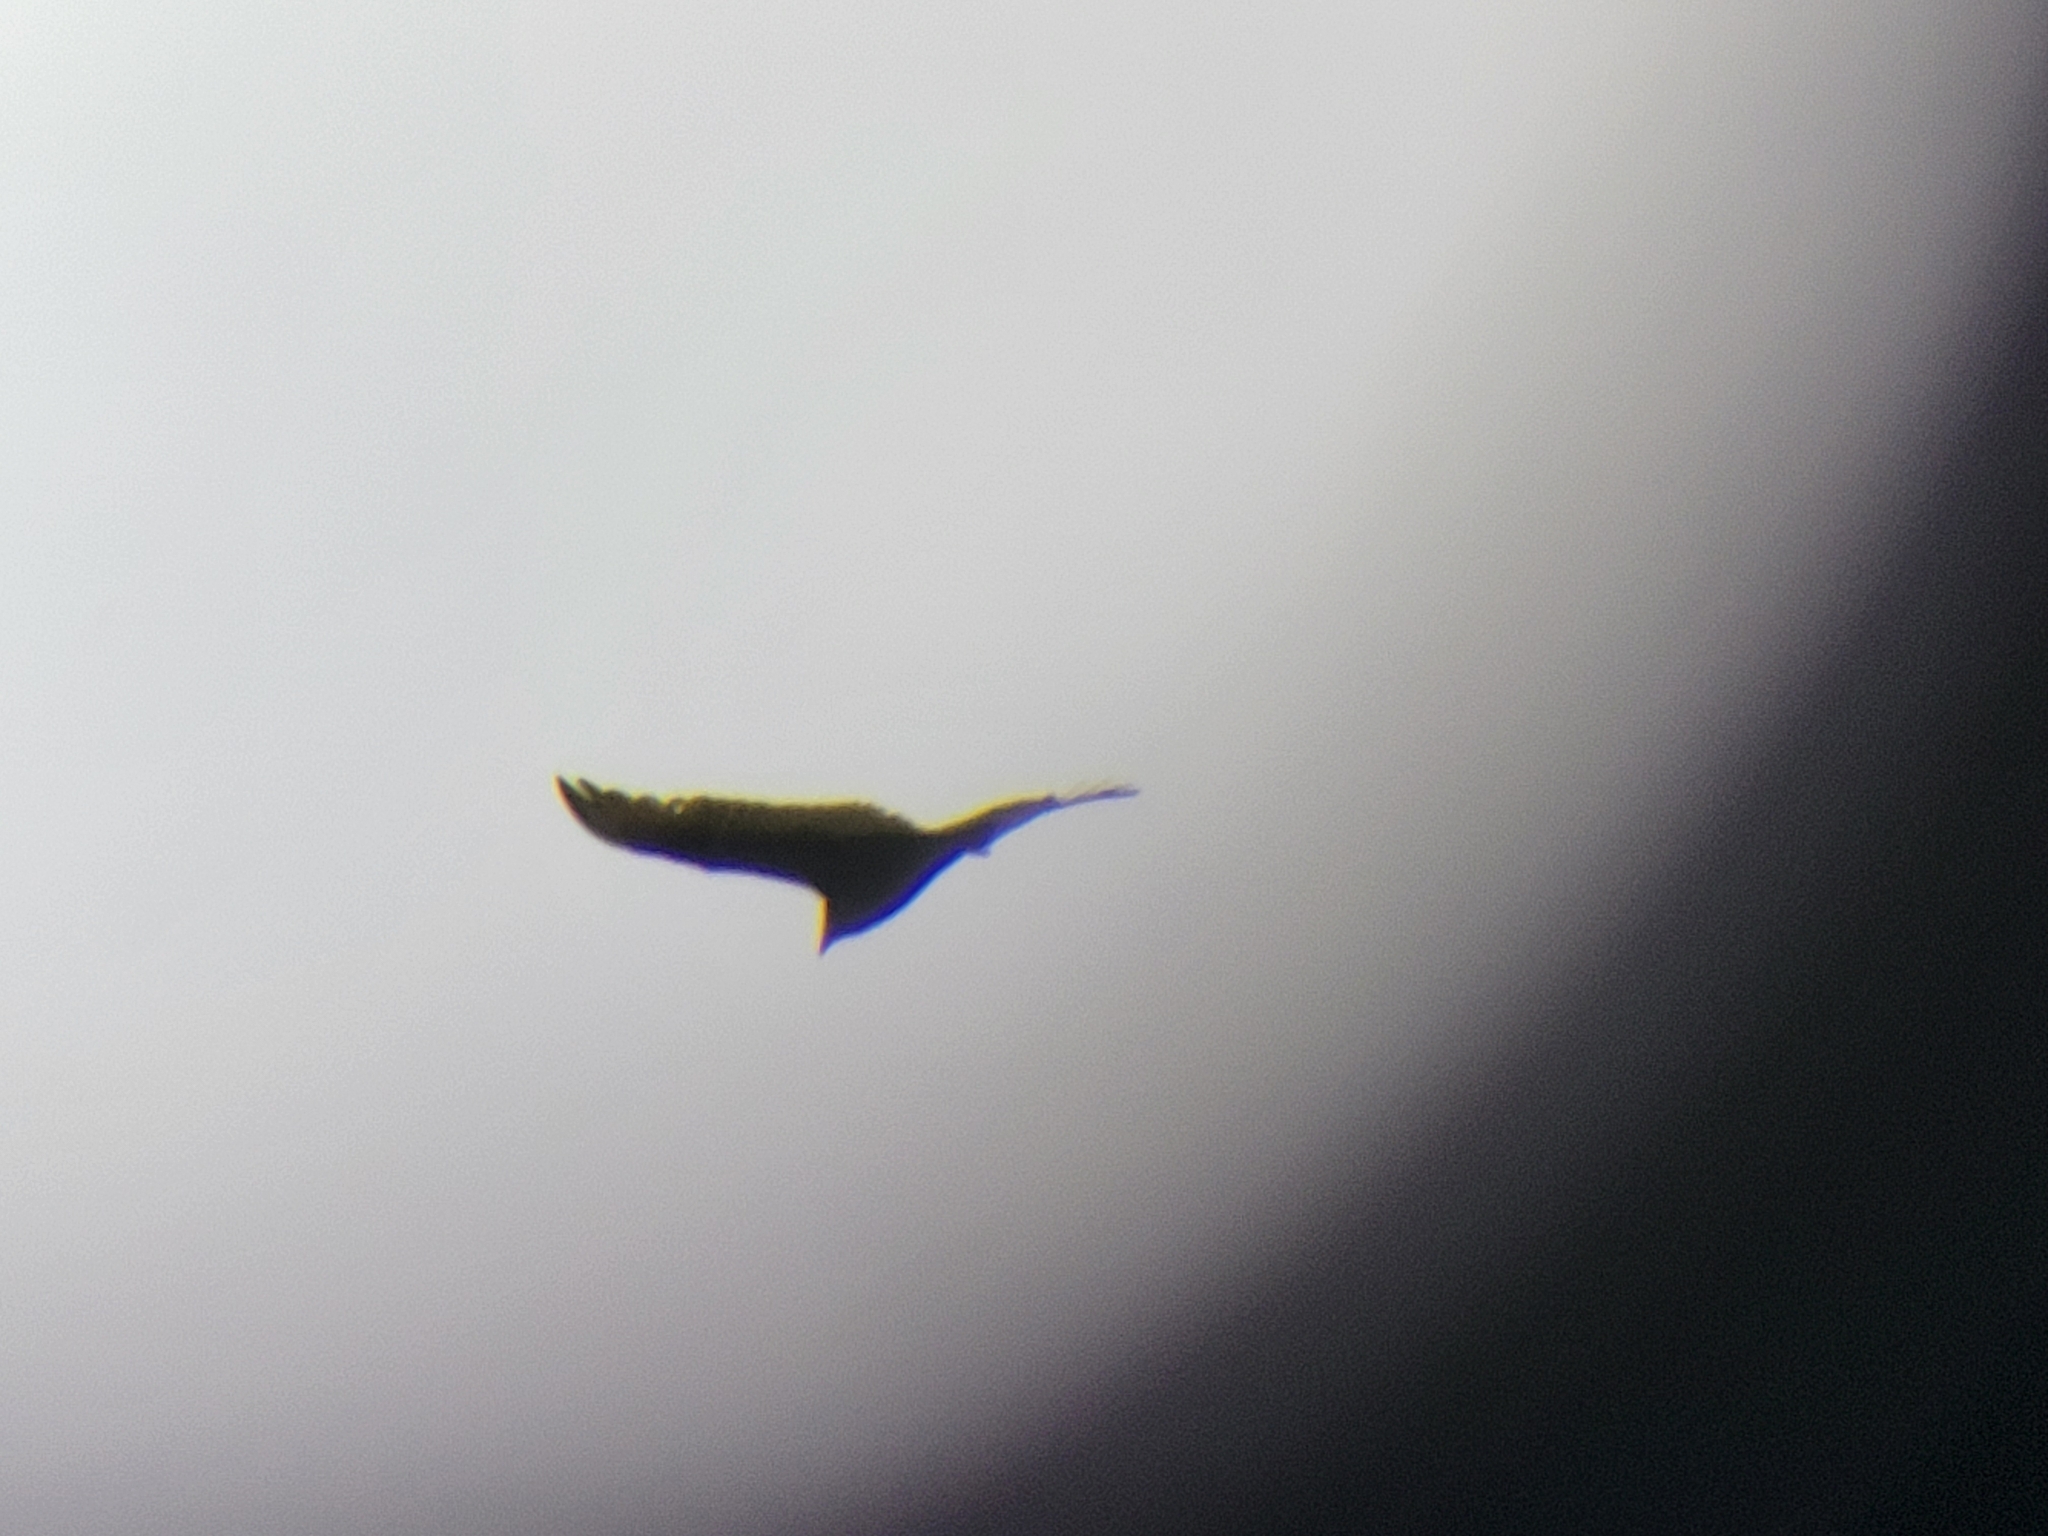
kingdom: Animalia
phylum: Chordata
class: Aves
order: Accipitriformes
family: Cathartidae
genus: Cathartes
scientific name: Cathartes aura
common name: Turkey vulture
